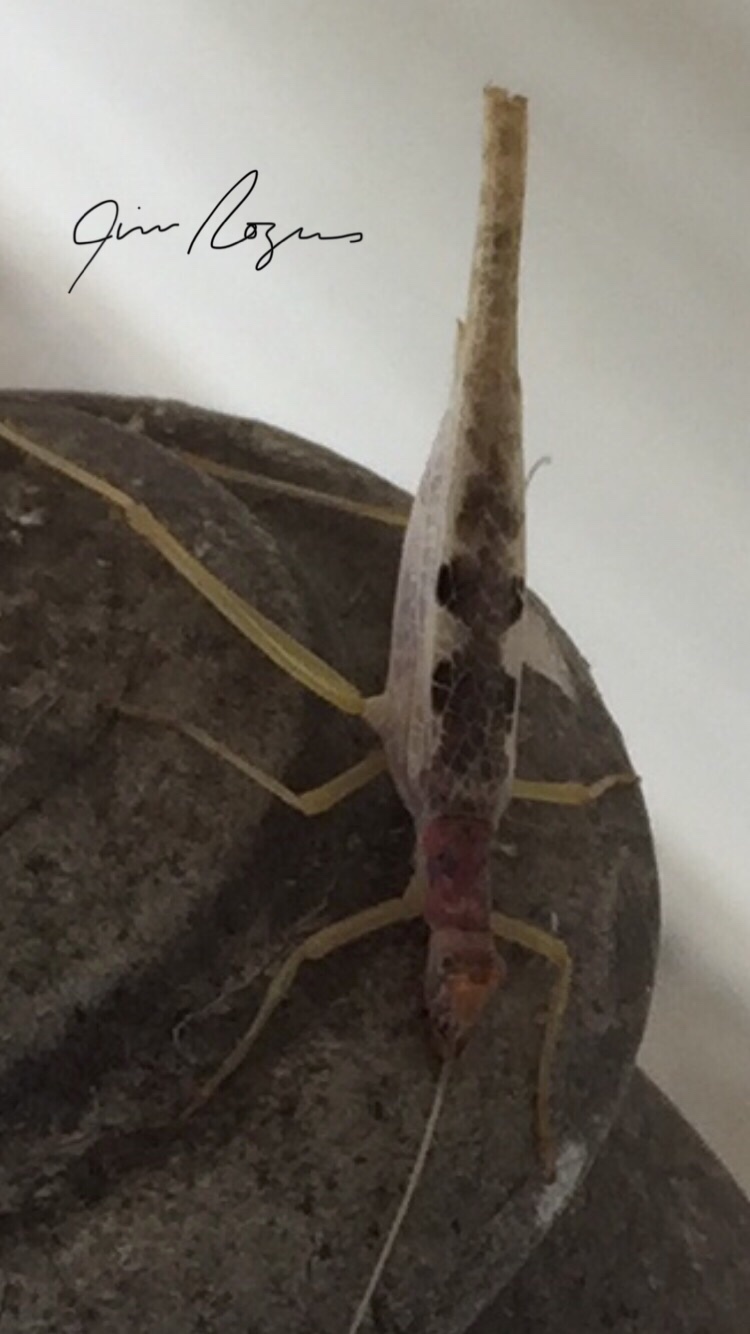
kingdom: Animalia
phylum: Arthropoda
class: Insecta
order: Orthoptera
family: Gryllidae
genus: Neoxabea
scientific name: Neoxabea bipunctata
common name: Two-spotted tree cricket
